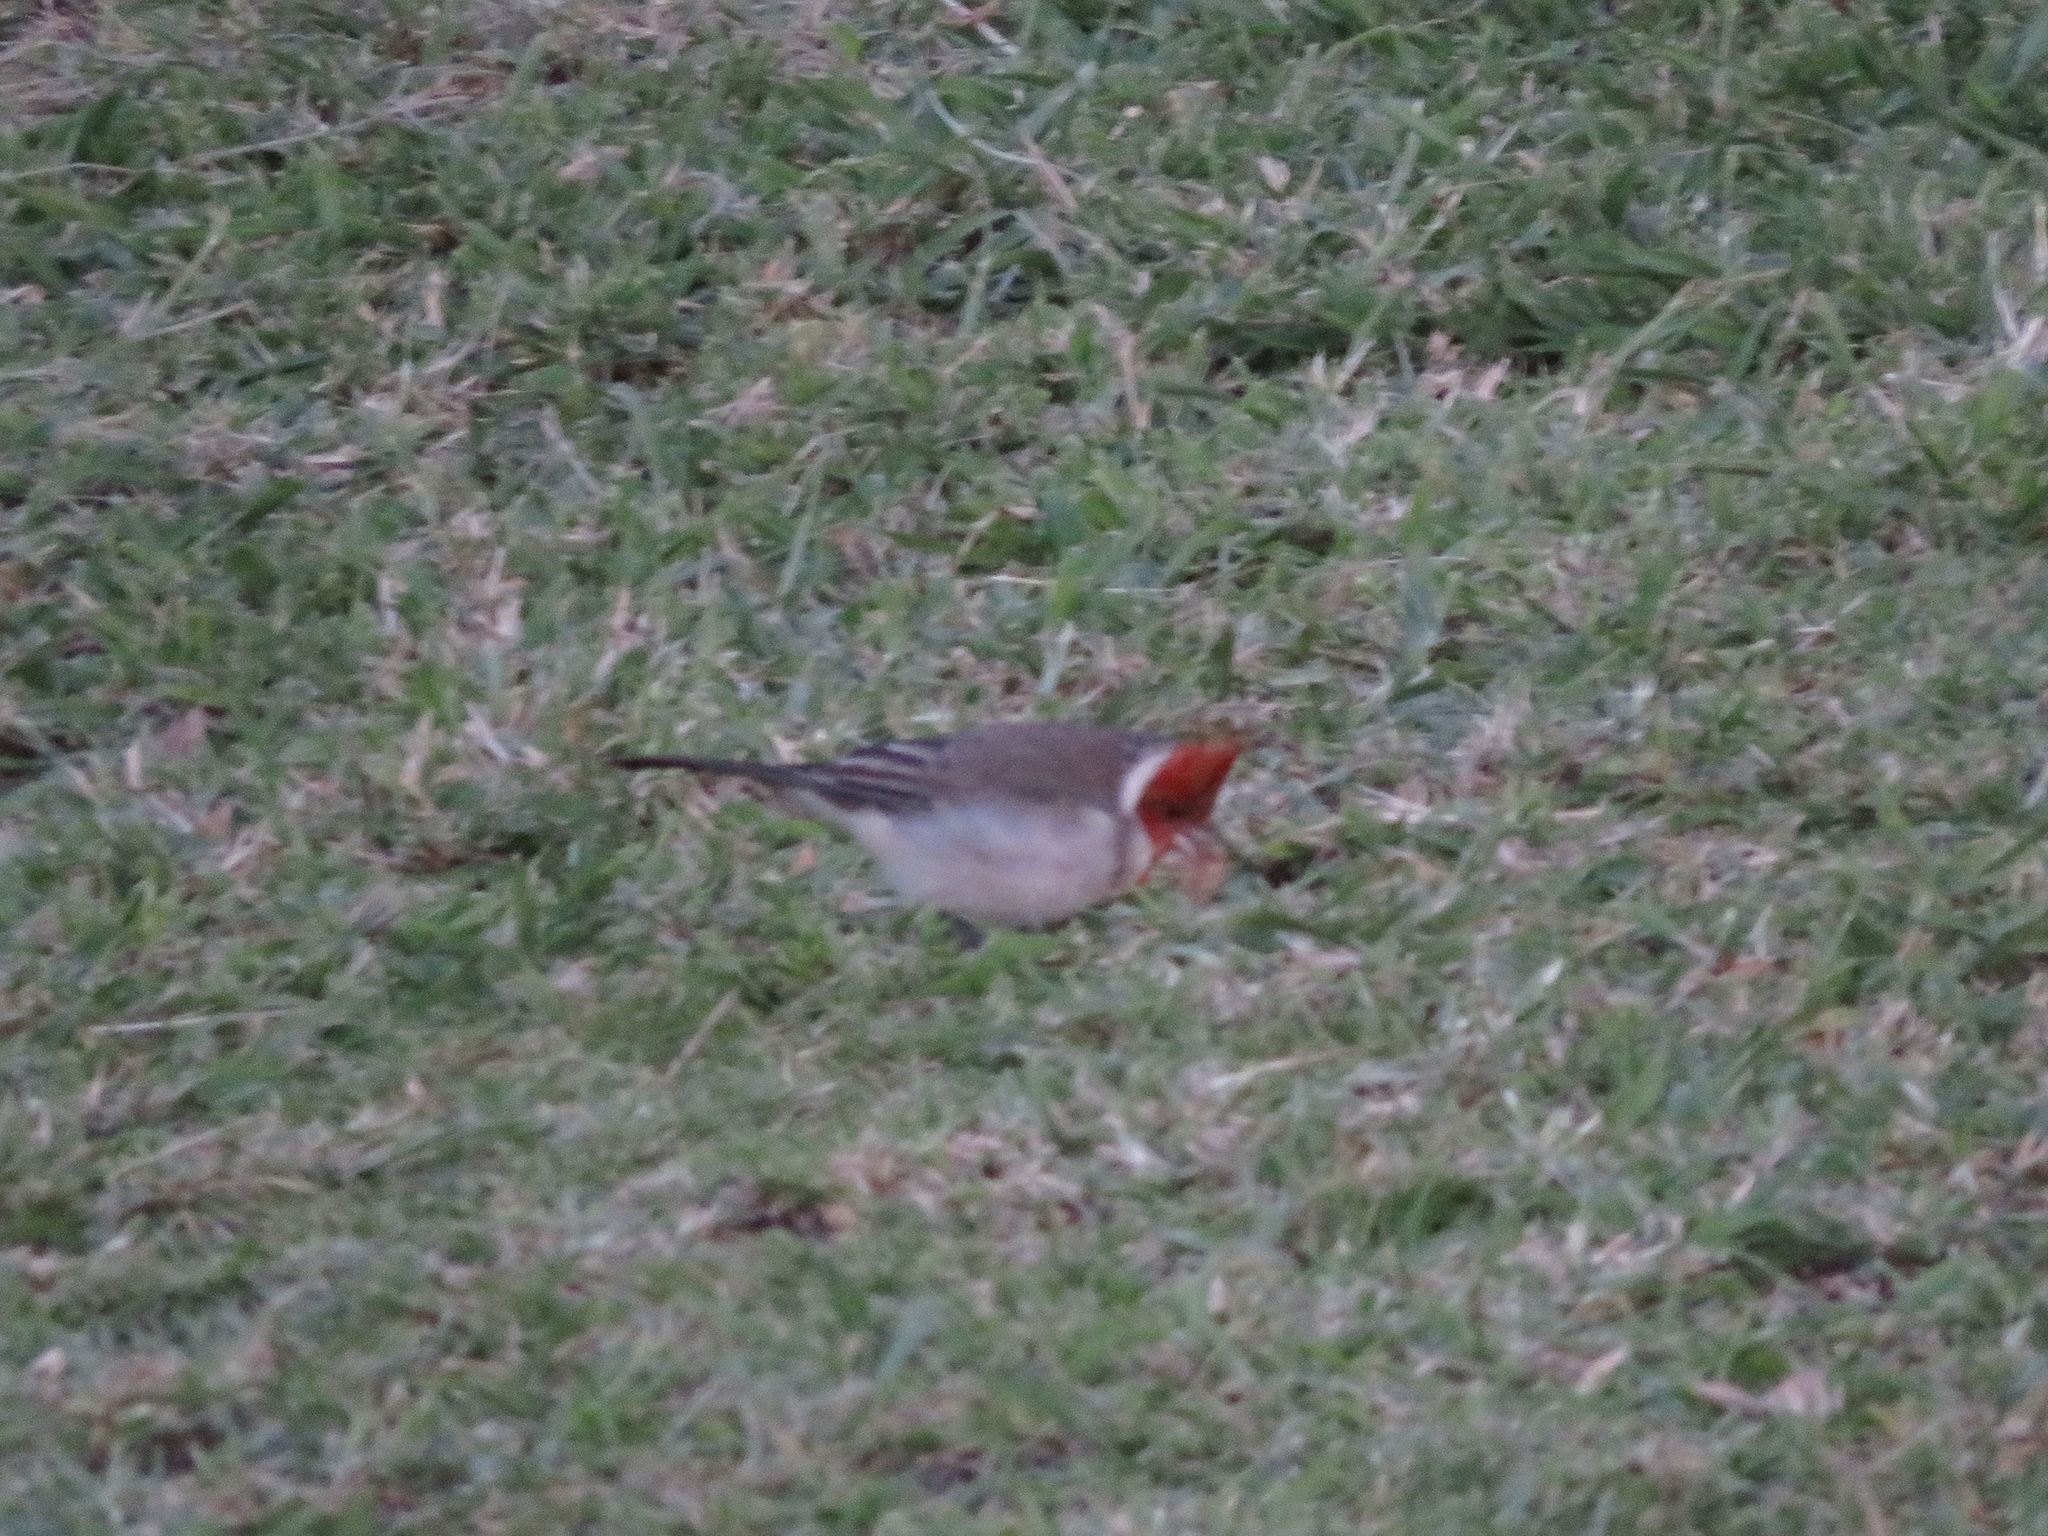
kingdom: Animalia
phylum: Chordata
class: Aves
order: Passeriformes
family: Thraupidae
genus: Paroaria
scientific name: Paroaria coronata
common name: Red-crested cardinal
